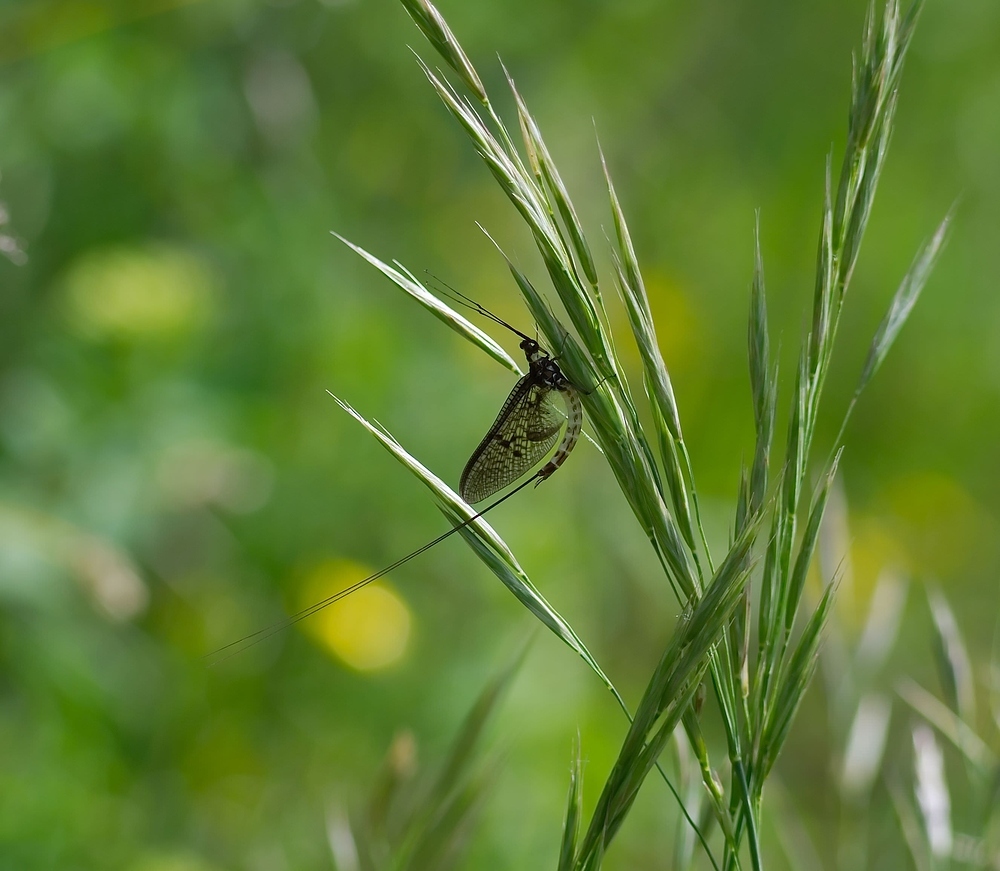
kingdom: Animalia
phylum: Arthropoda
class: Insecta
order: Ephemeroptera
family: Ephemeridae
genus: Ephemera
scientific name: Ephemera danica
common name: Green dun
